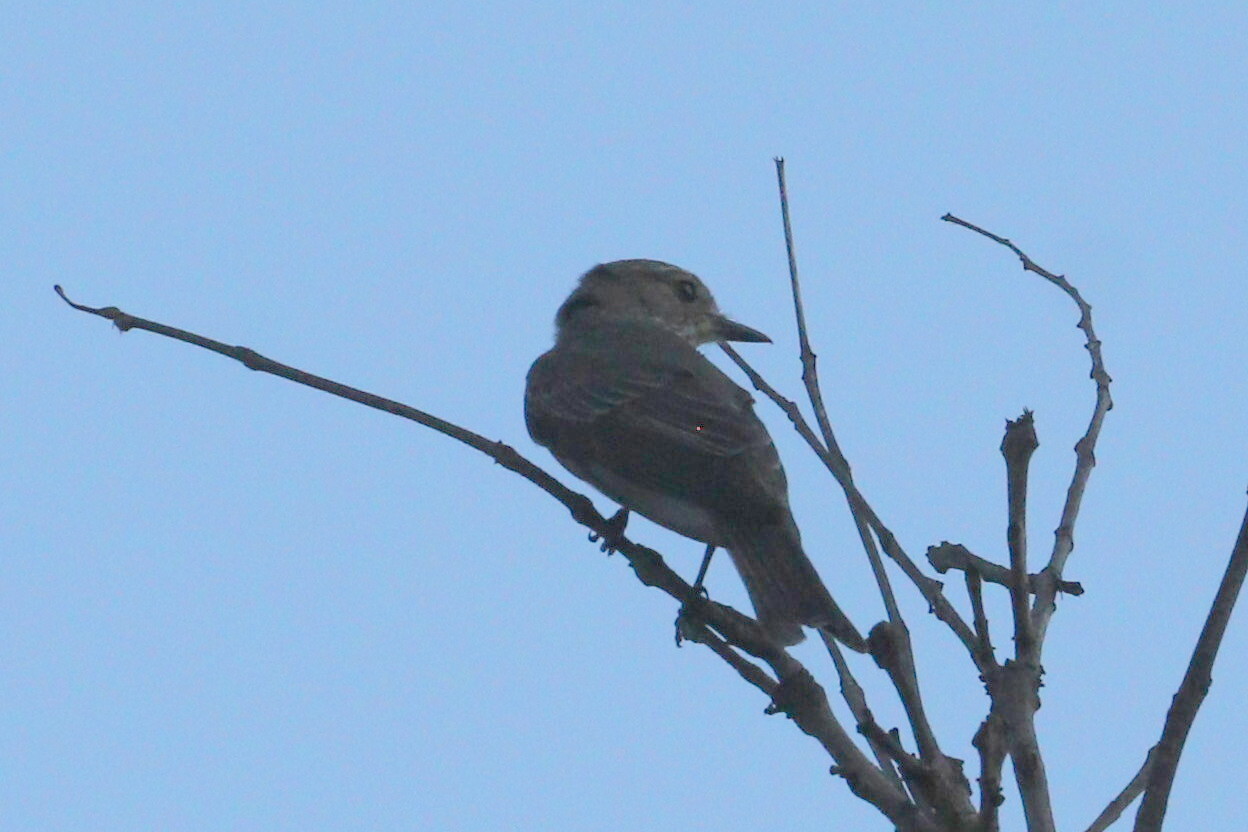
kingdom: Animalia
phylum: Chordata
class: Aves
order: Passeriformes
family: Muscicapidae
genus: Muscicapa
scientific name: Muscicapa striata
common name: Spotted flycatcher
